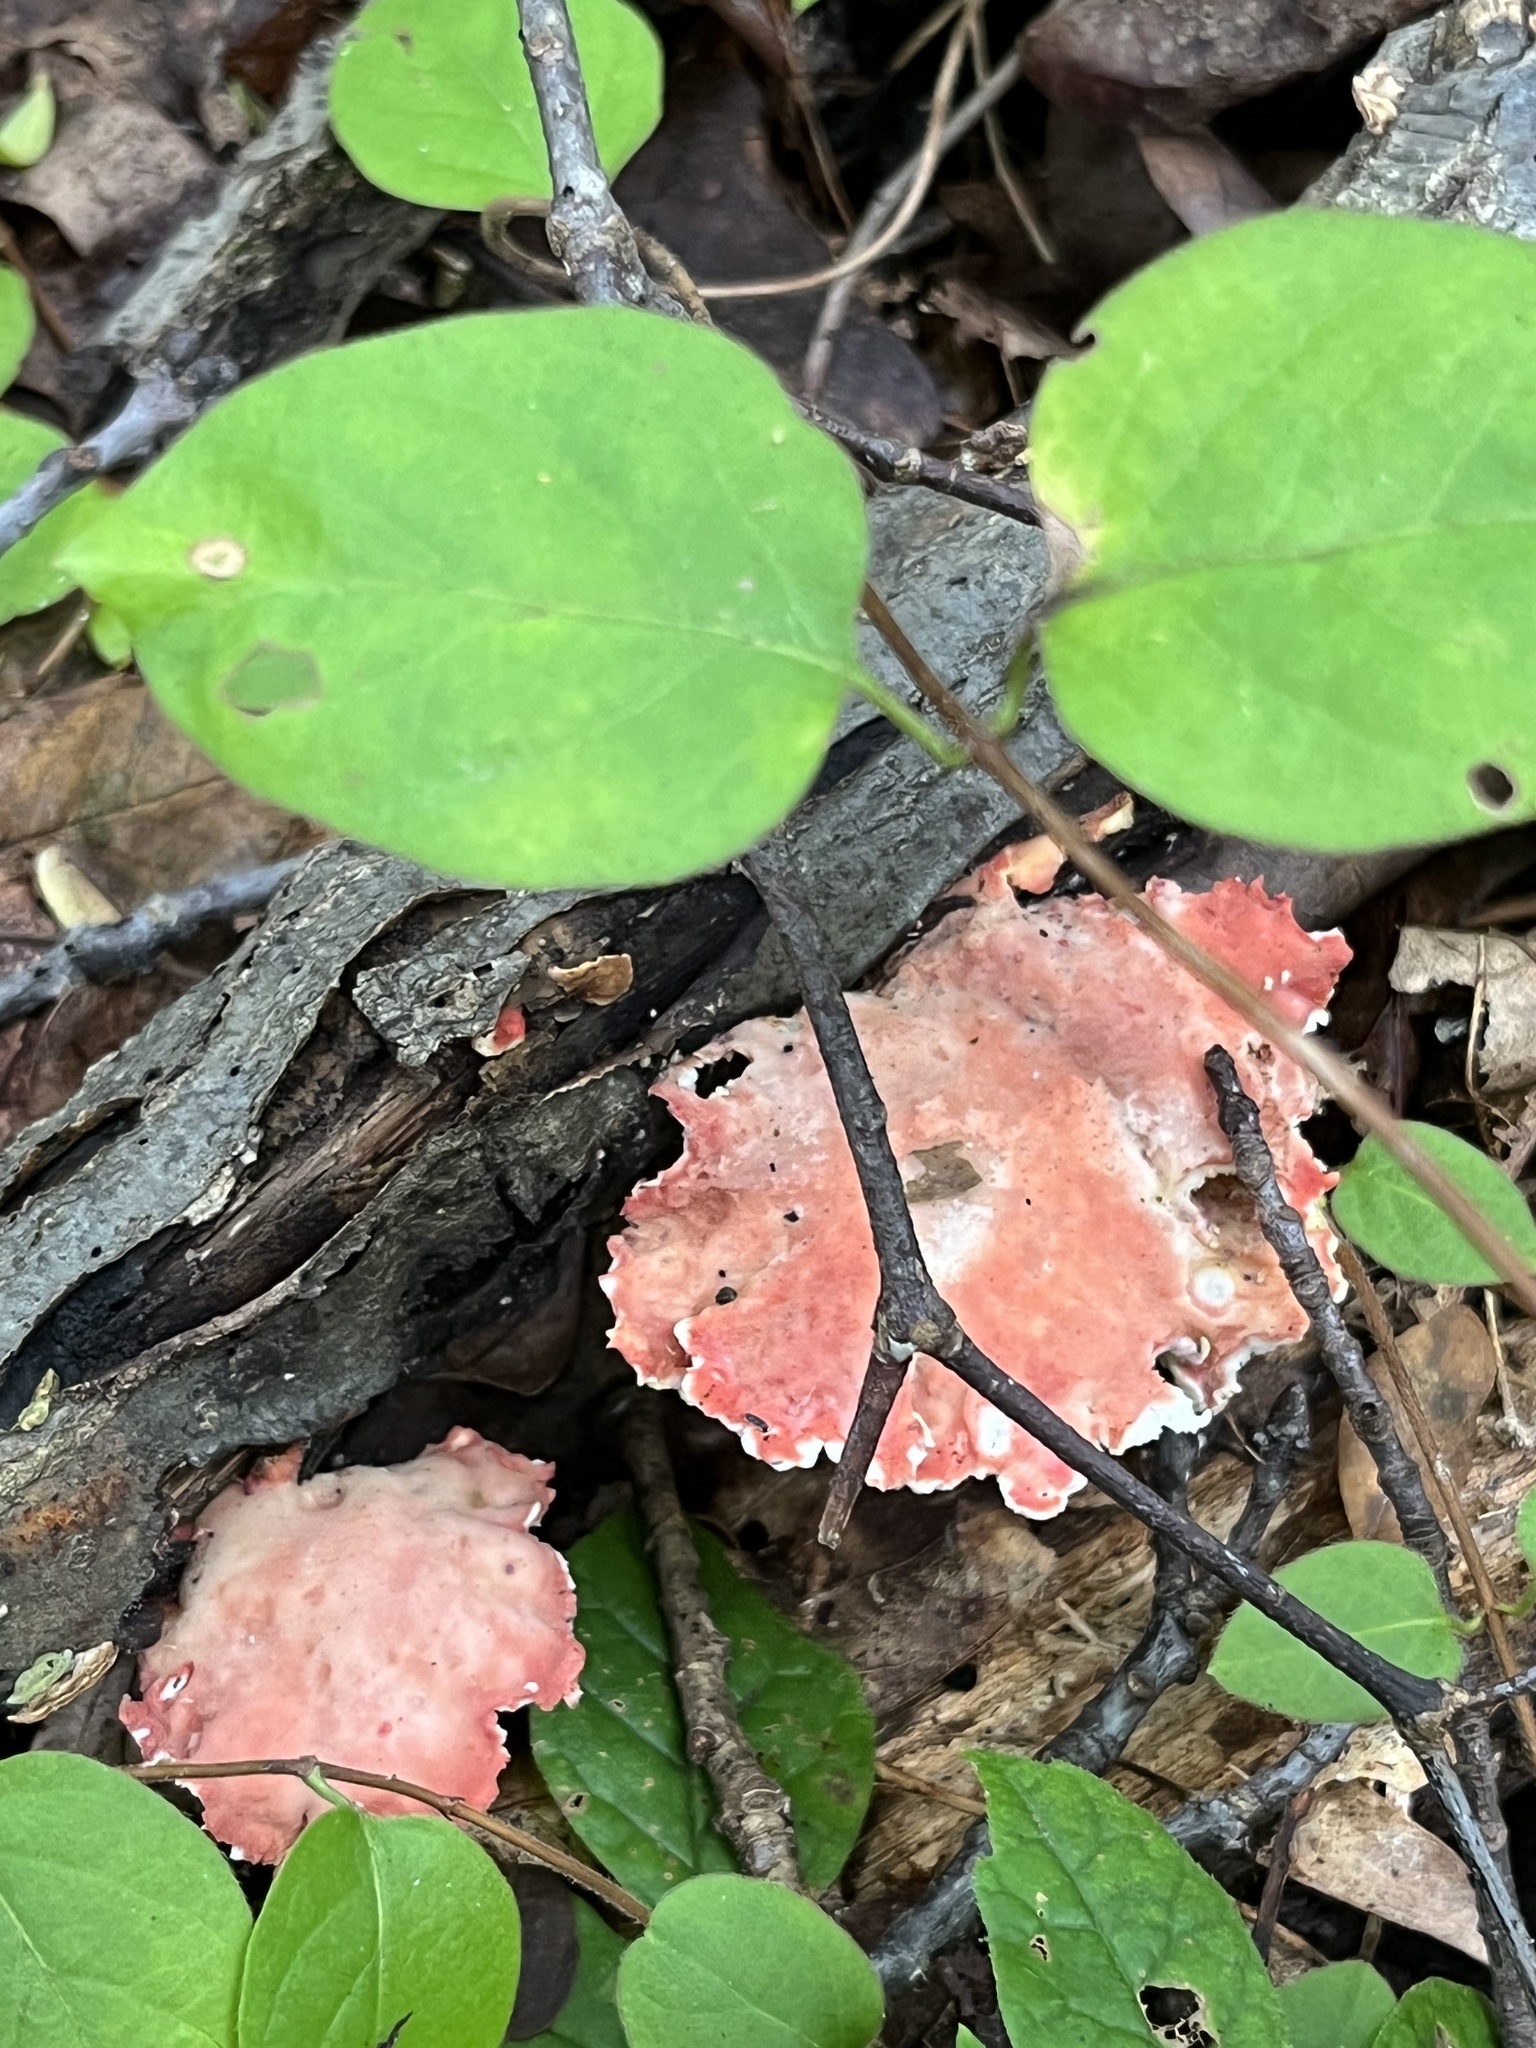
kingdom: Fungi
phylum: Basidiomycota
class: Agaricomycetes
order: Polyporales
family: Irpicaceae
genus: Byssomerulius
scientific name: Byssomerulius incarnatus
